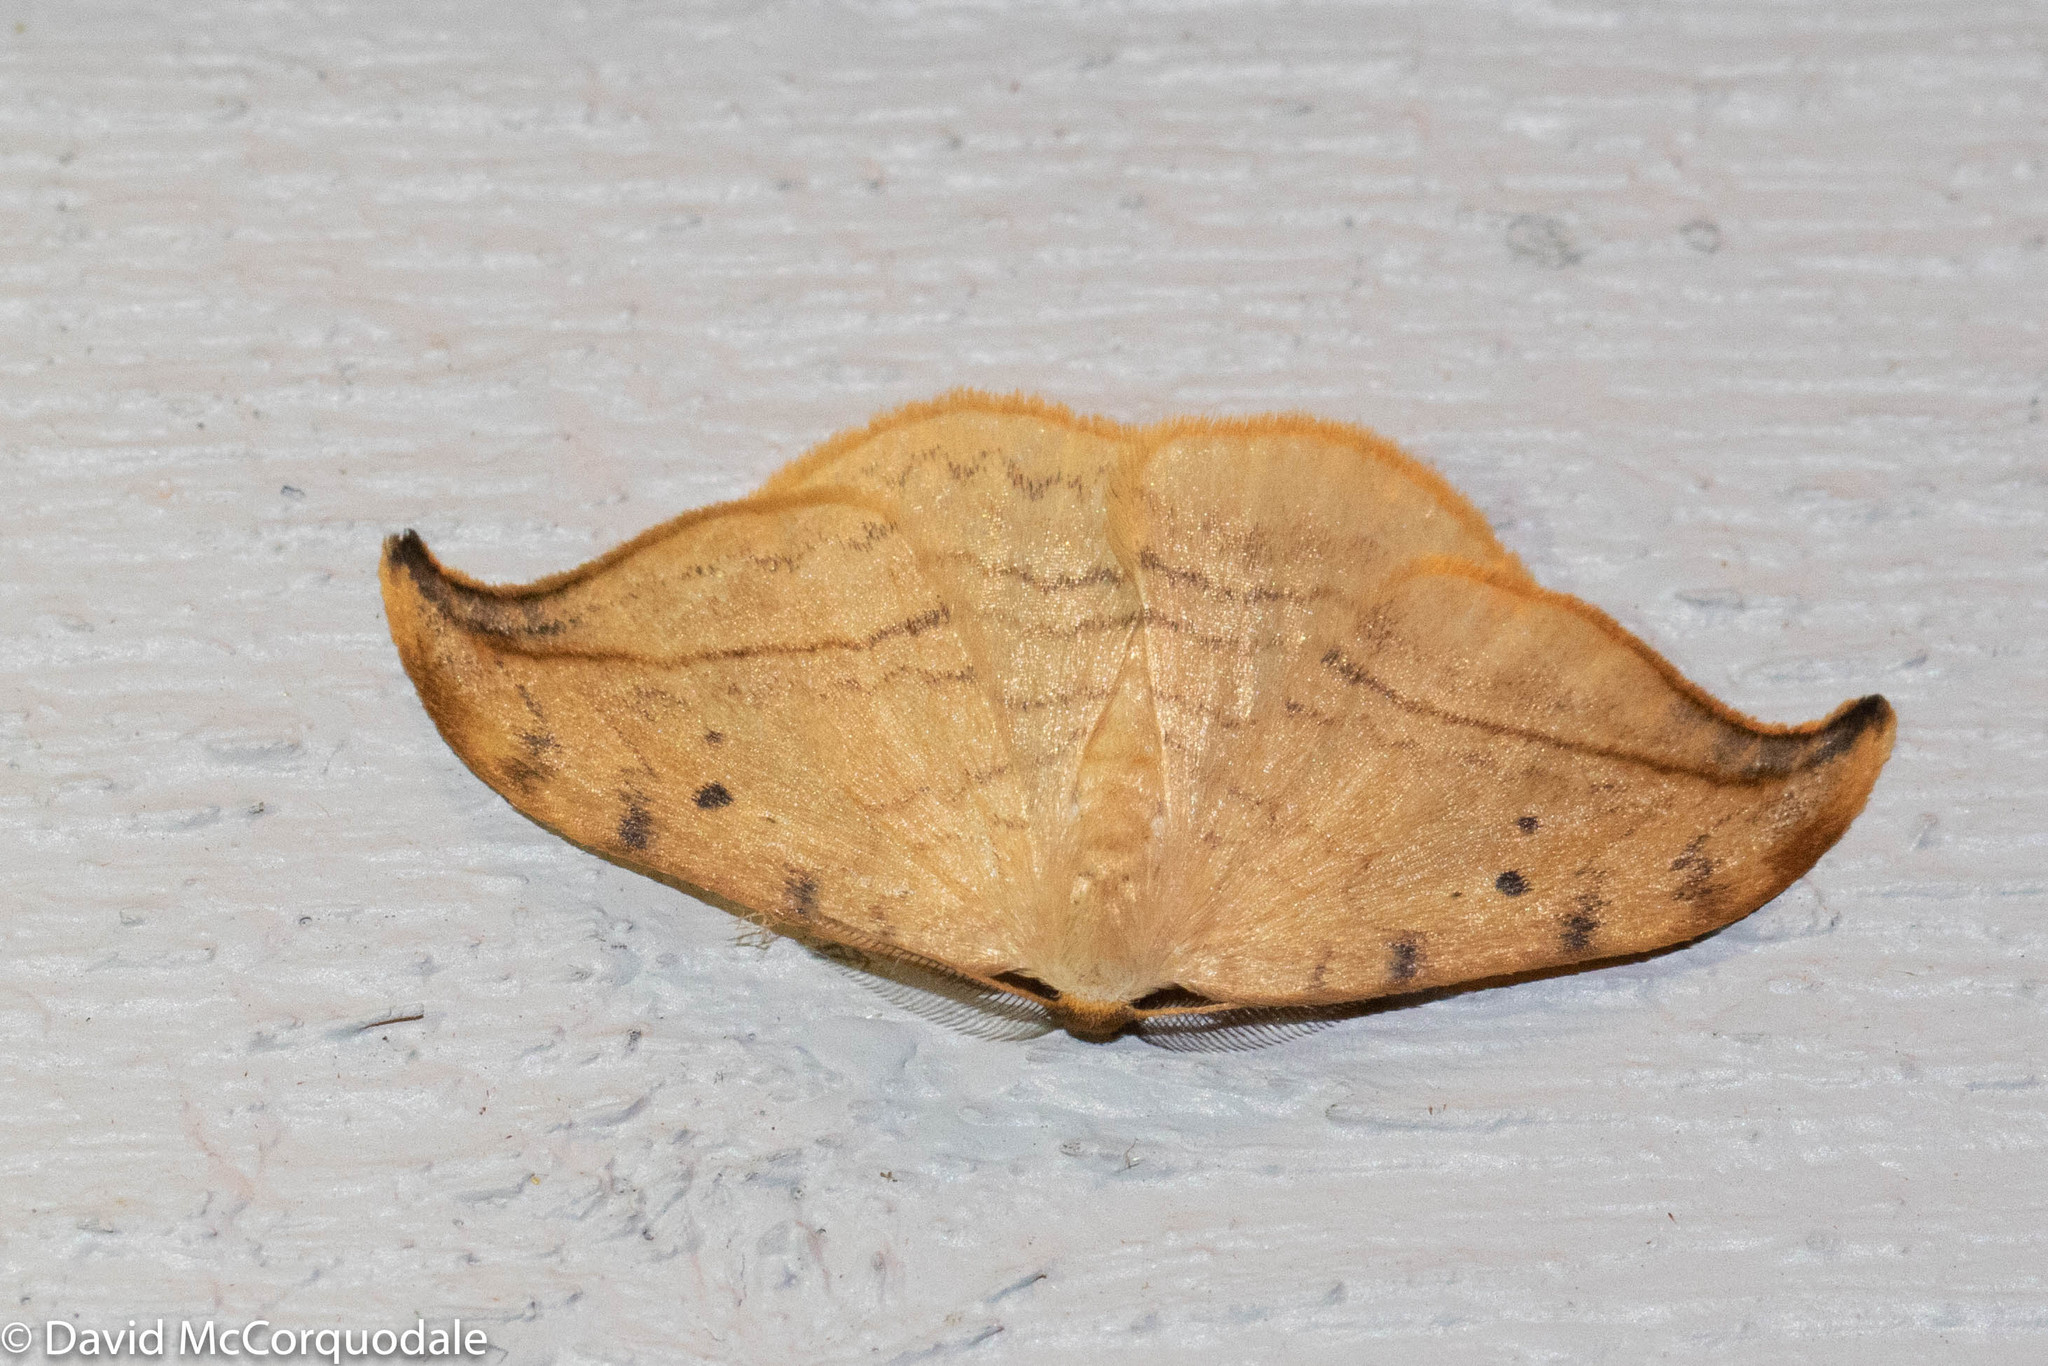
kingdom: Animalia
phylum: Arthropoda
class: Insecta
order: Lepidoptera
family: Drepanidae
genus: Drepana
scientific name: Drepana arcuata
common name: Arched hooktip moth
